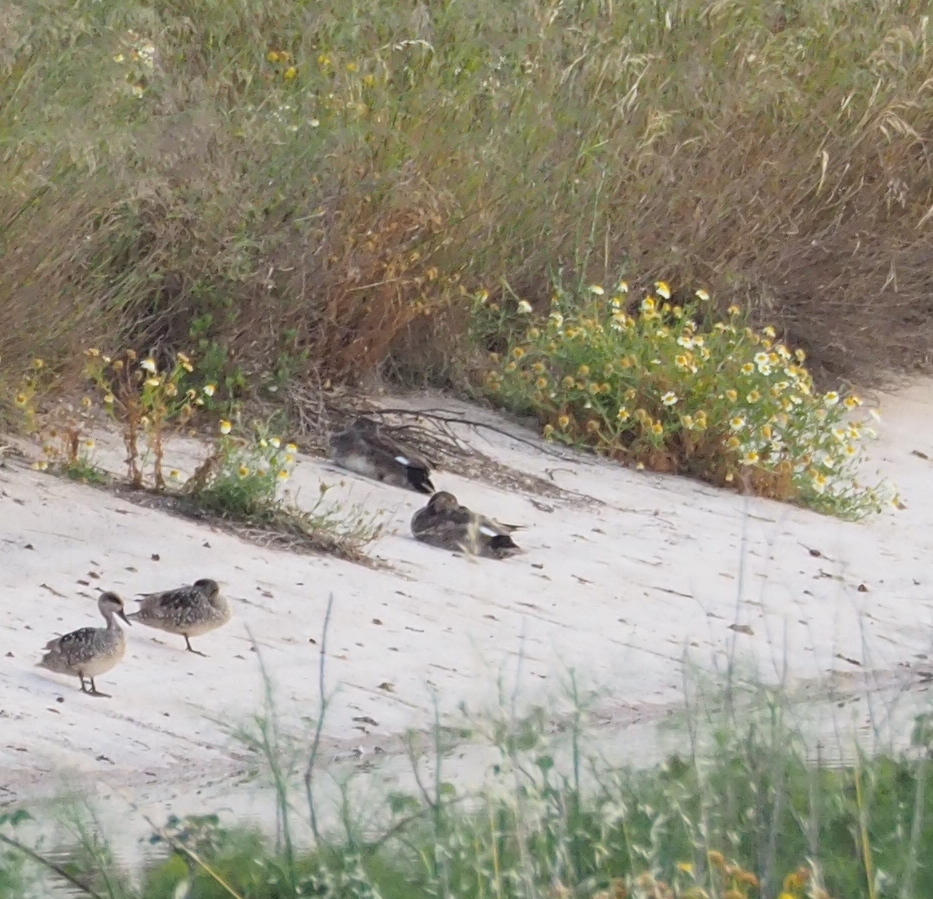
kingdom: Animalia
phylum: Chordata
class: Aves
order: Anseriformes
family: Anatidae
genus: Mareca
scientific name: Mareca strepera
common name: Gadwall
